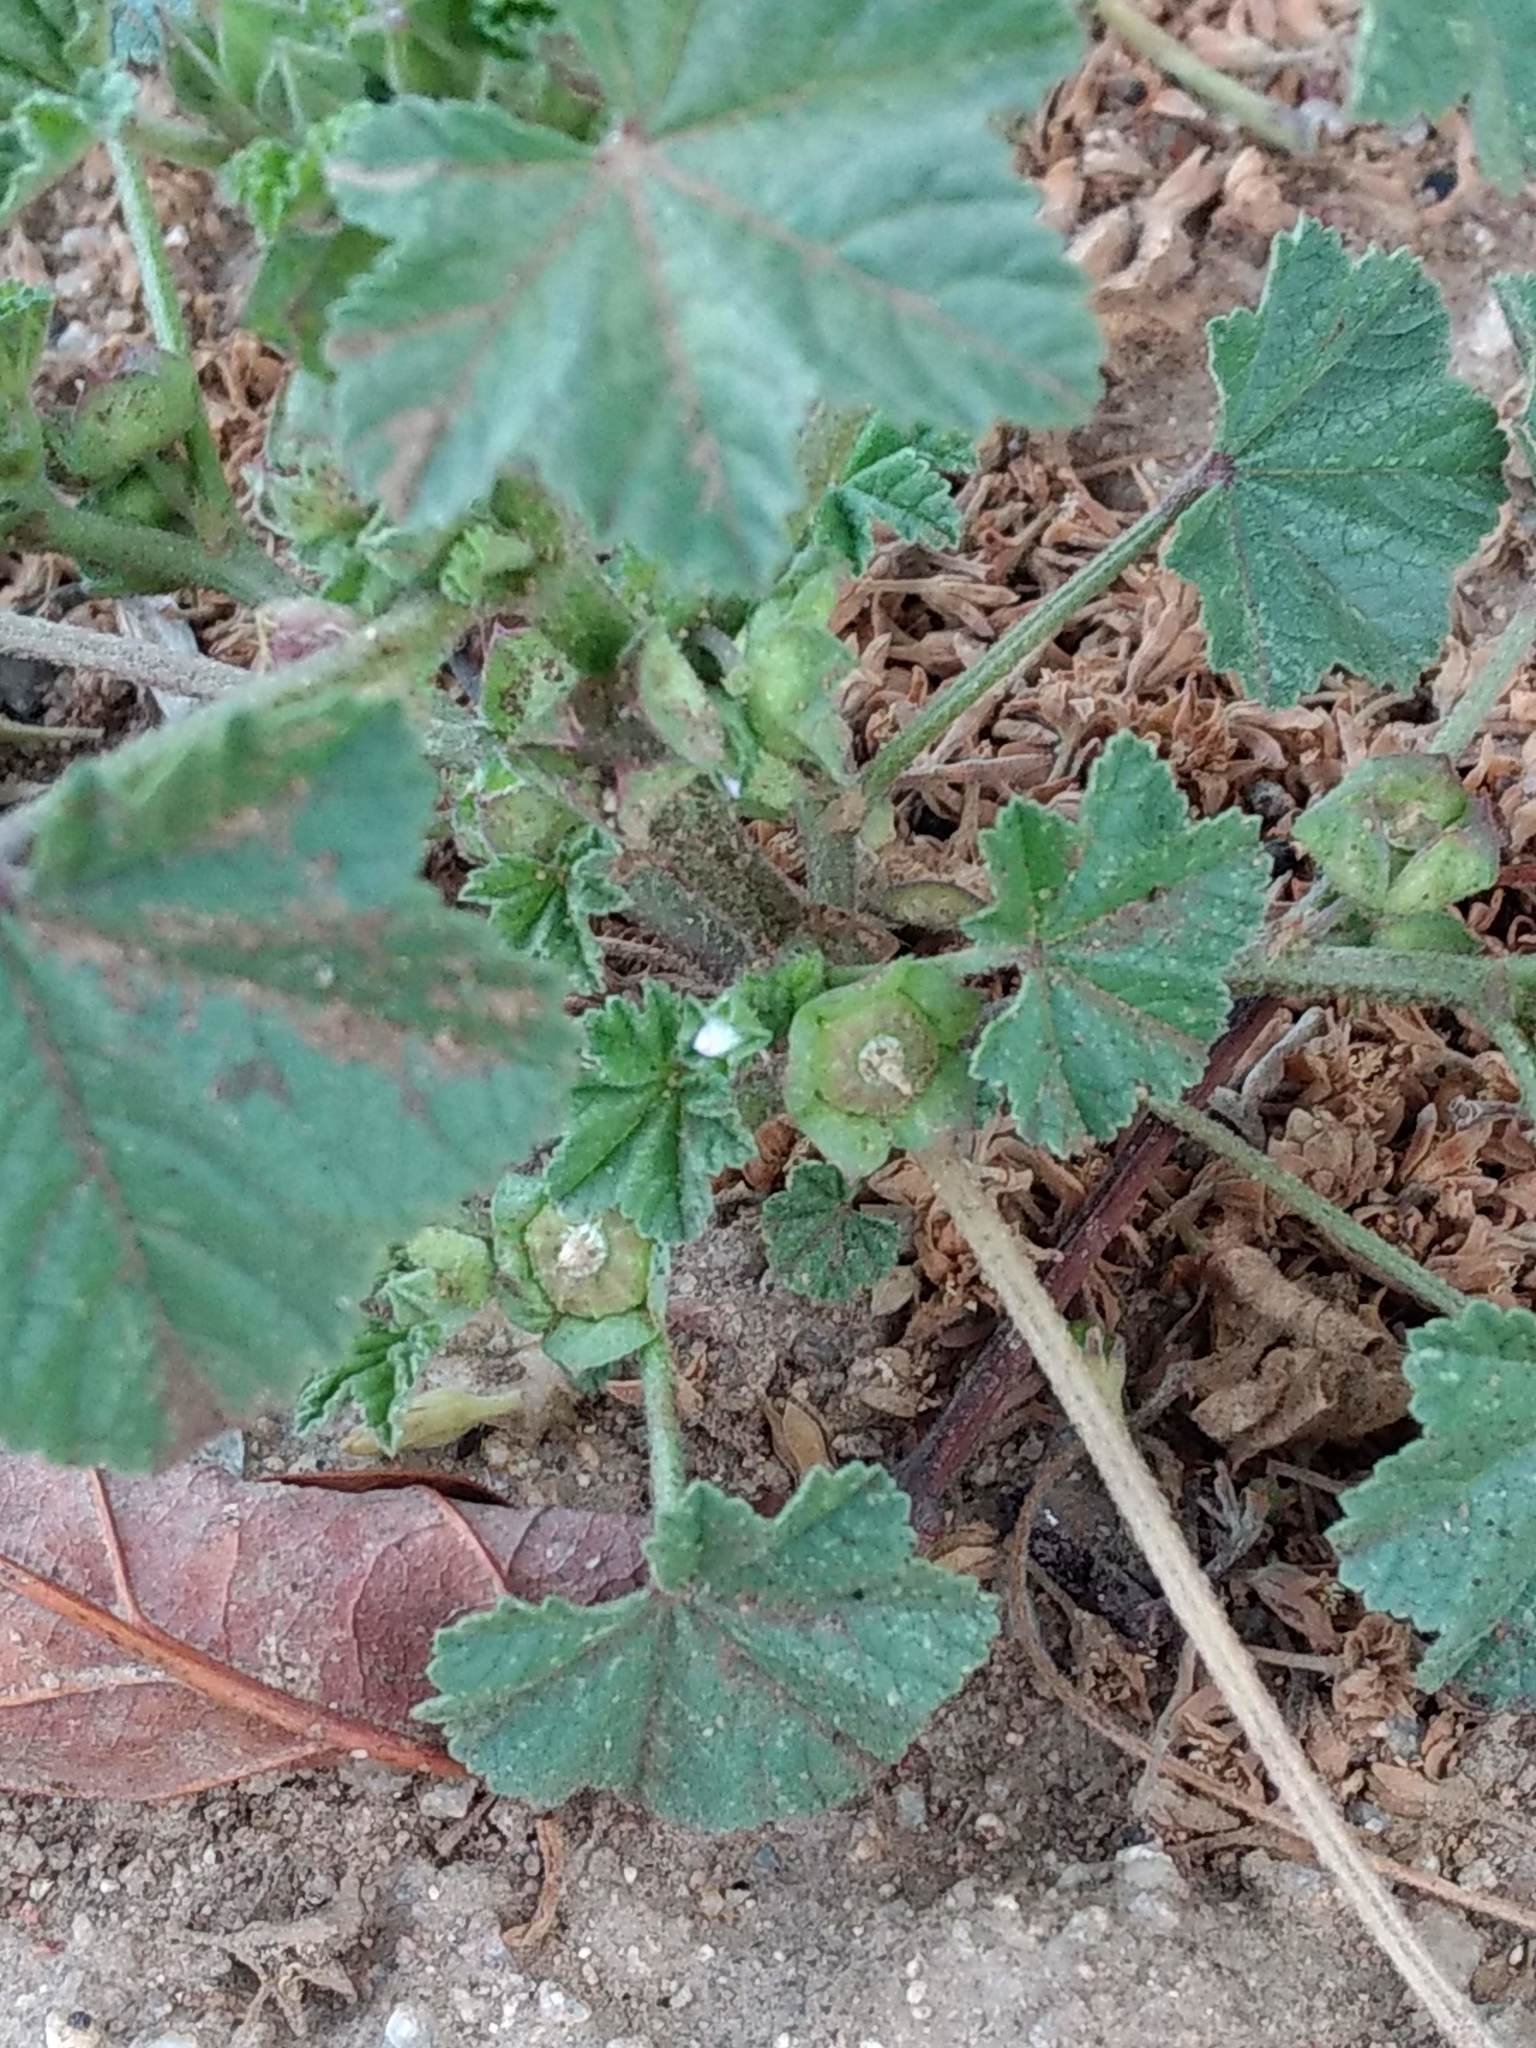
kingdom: Plantae
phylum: Tracheophyta
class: Magnoliopsida
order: Malvales
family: Malvaceae
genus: Malva
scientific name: Malva parviflora
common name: Least mallow
